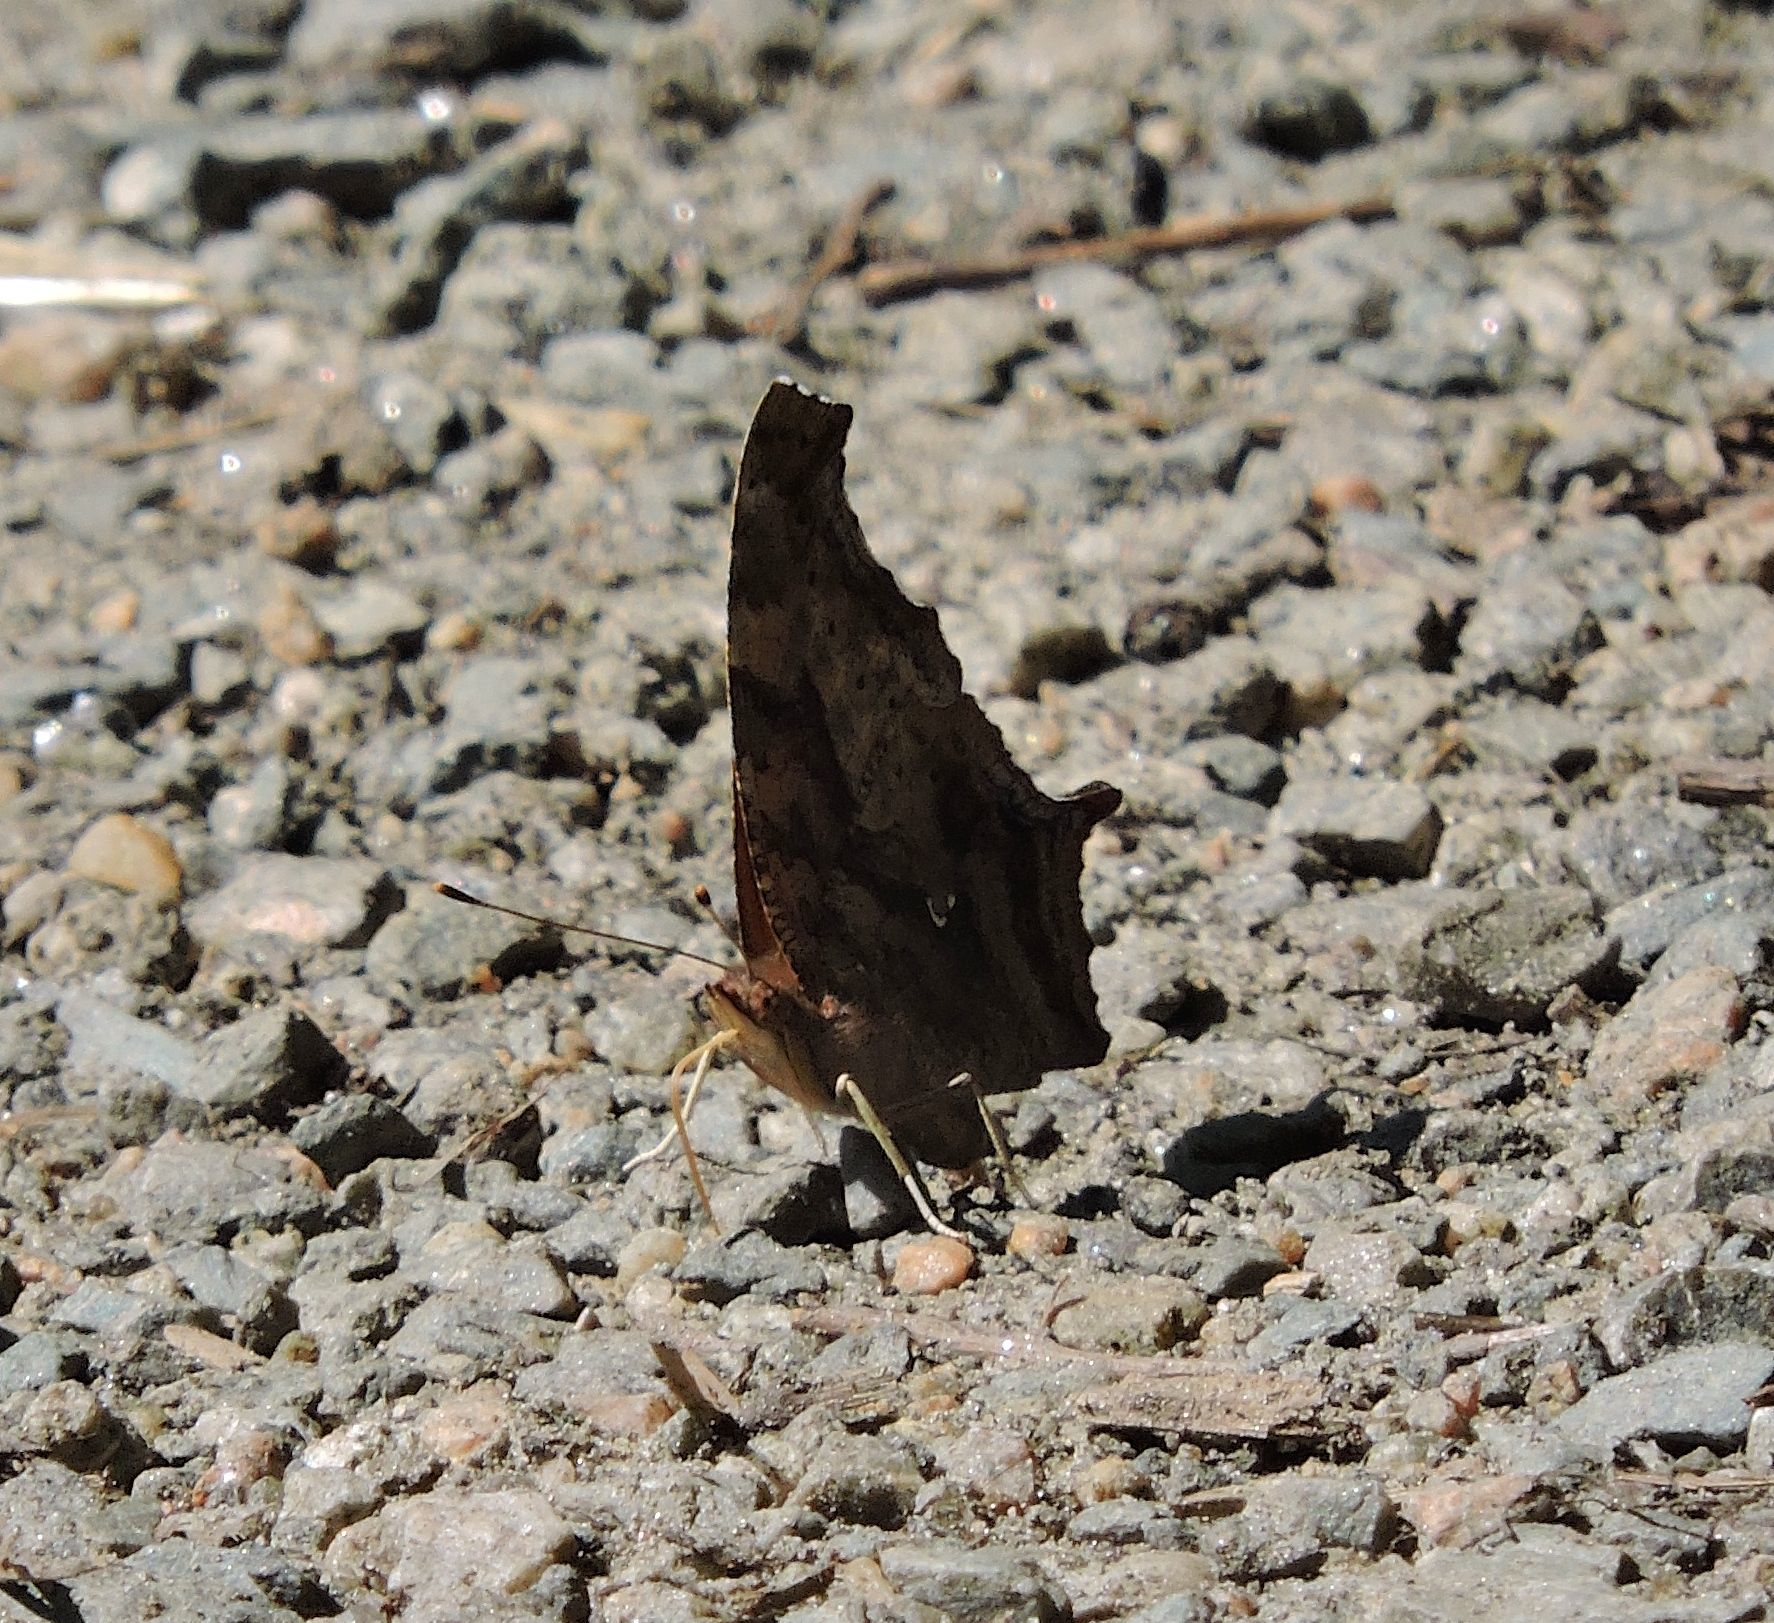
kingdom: Animalia
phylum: Arthropoda
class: Insecta
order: Lepidoptera
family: Nymphalidae
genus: Polygonia
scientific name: Polygonia interrogationis
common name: Question mark
